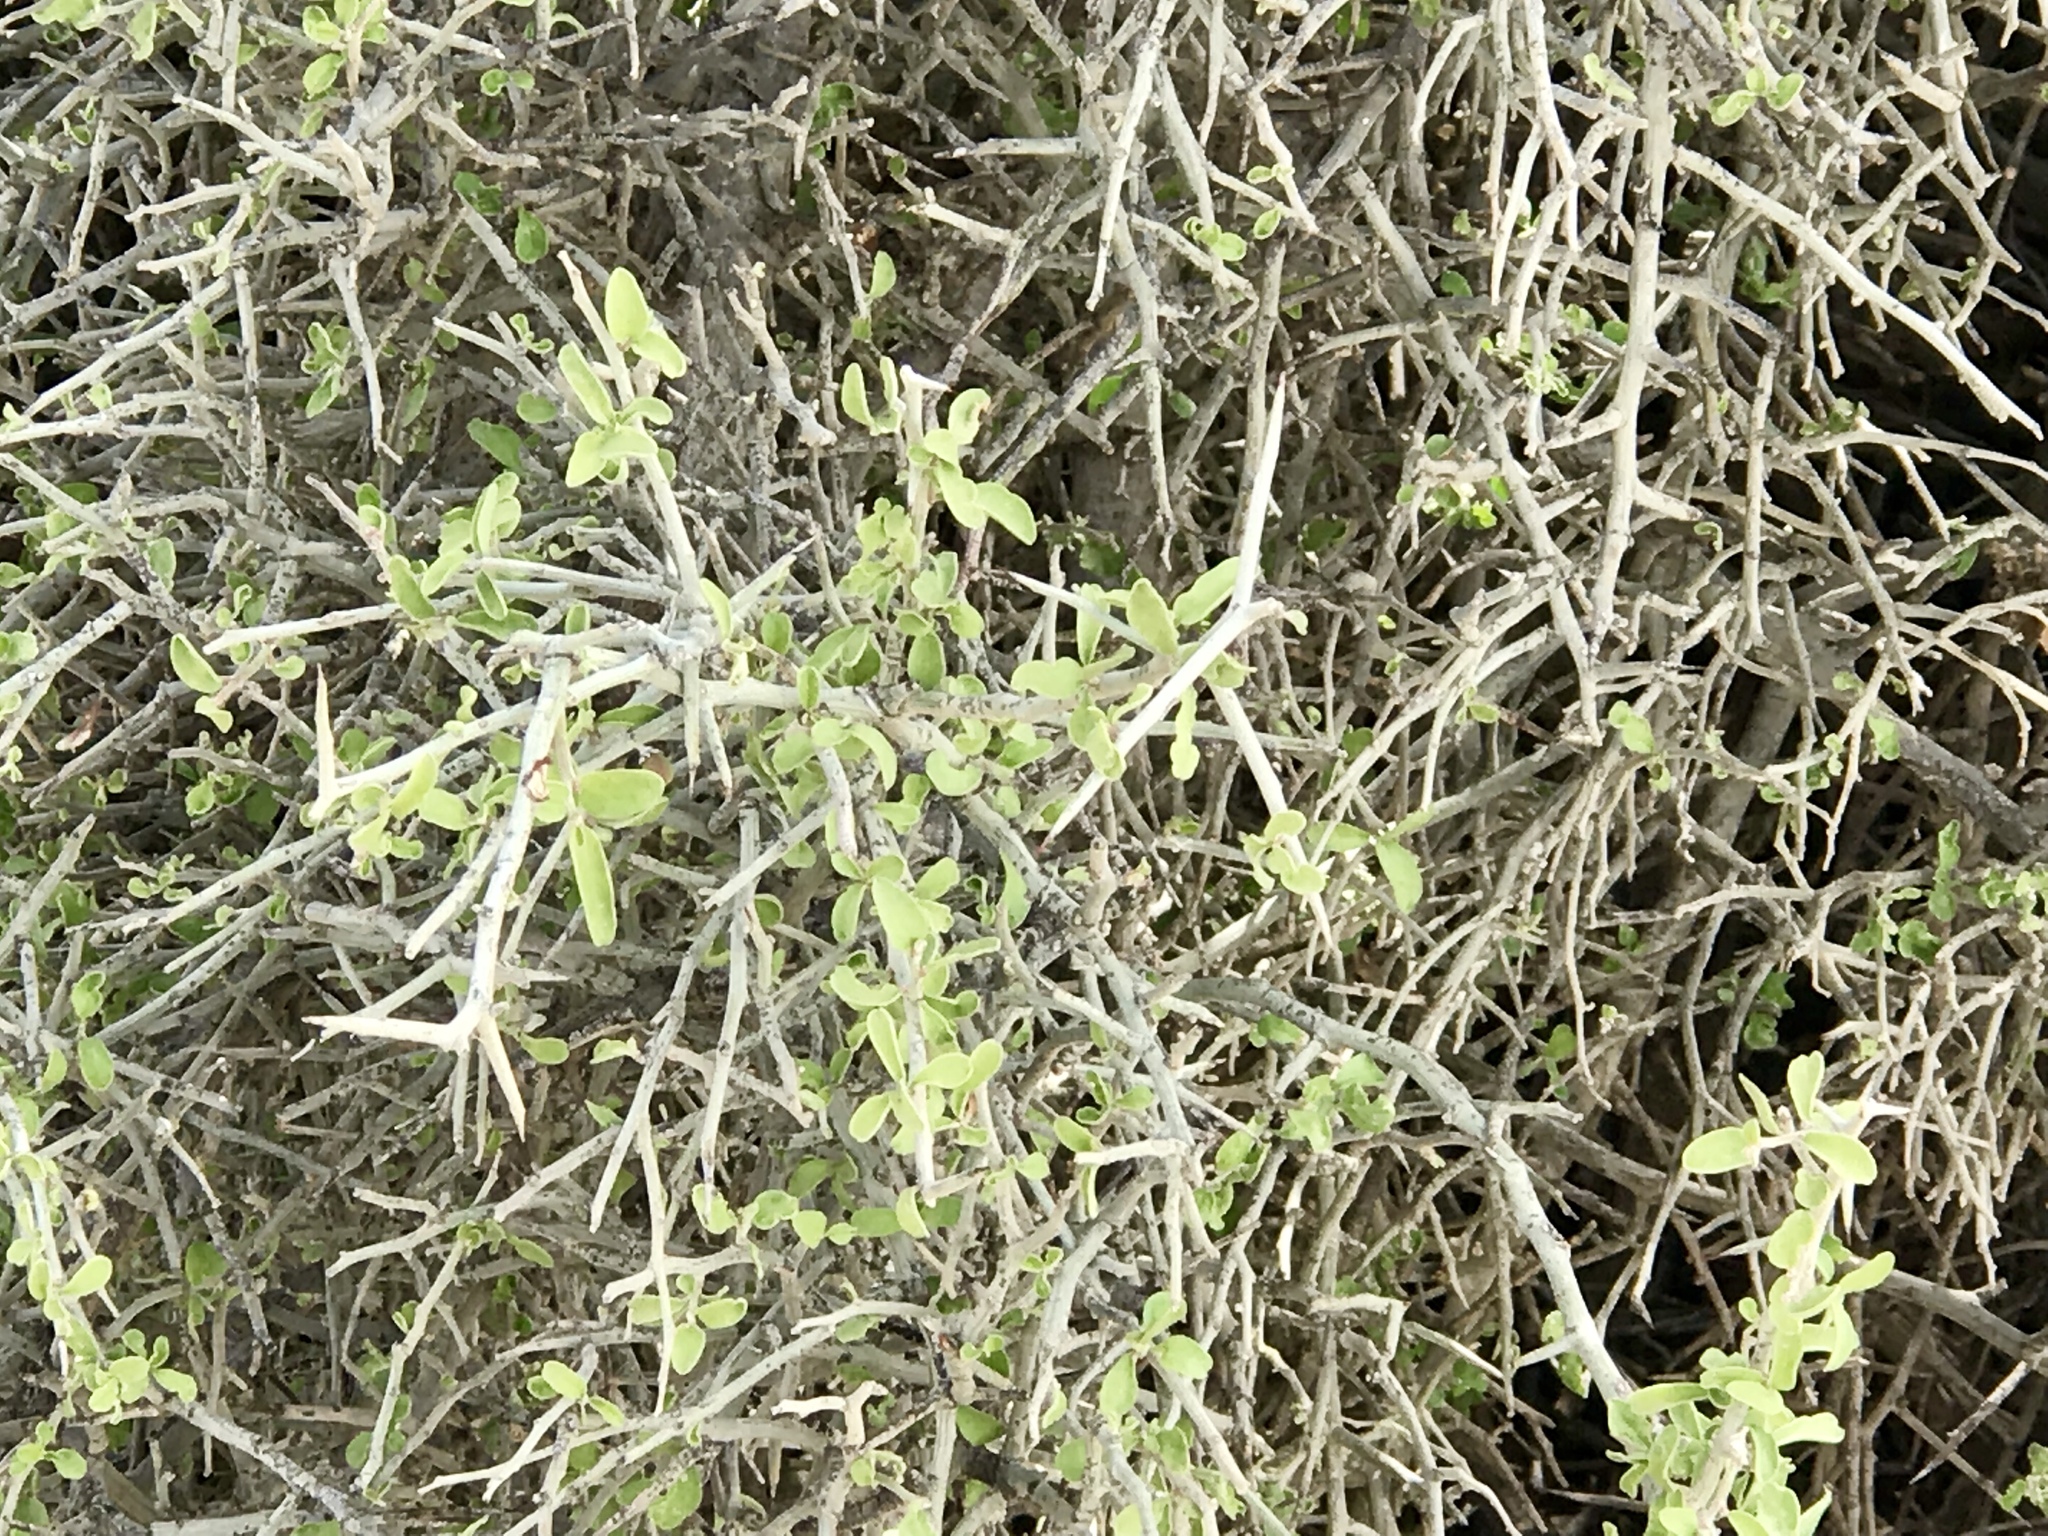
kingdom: Plantae
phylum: Tracheophyta
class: Magnoliopsida
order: Rosales
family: Rhamnaceae
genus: Sarcomphalus
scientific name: Sarcomphalus obtusifolius
